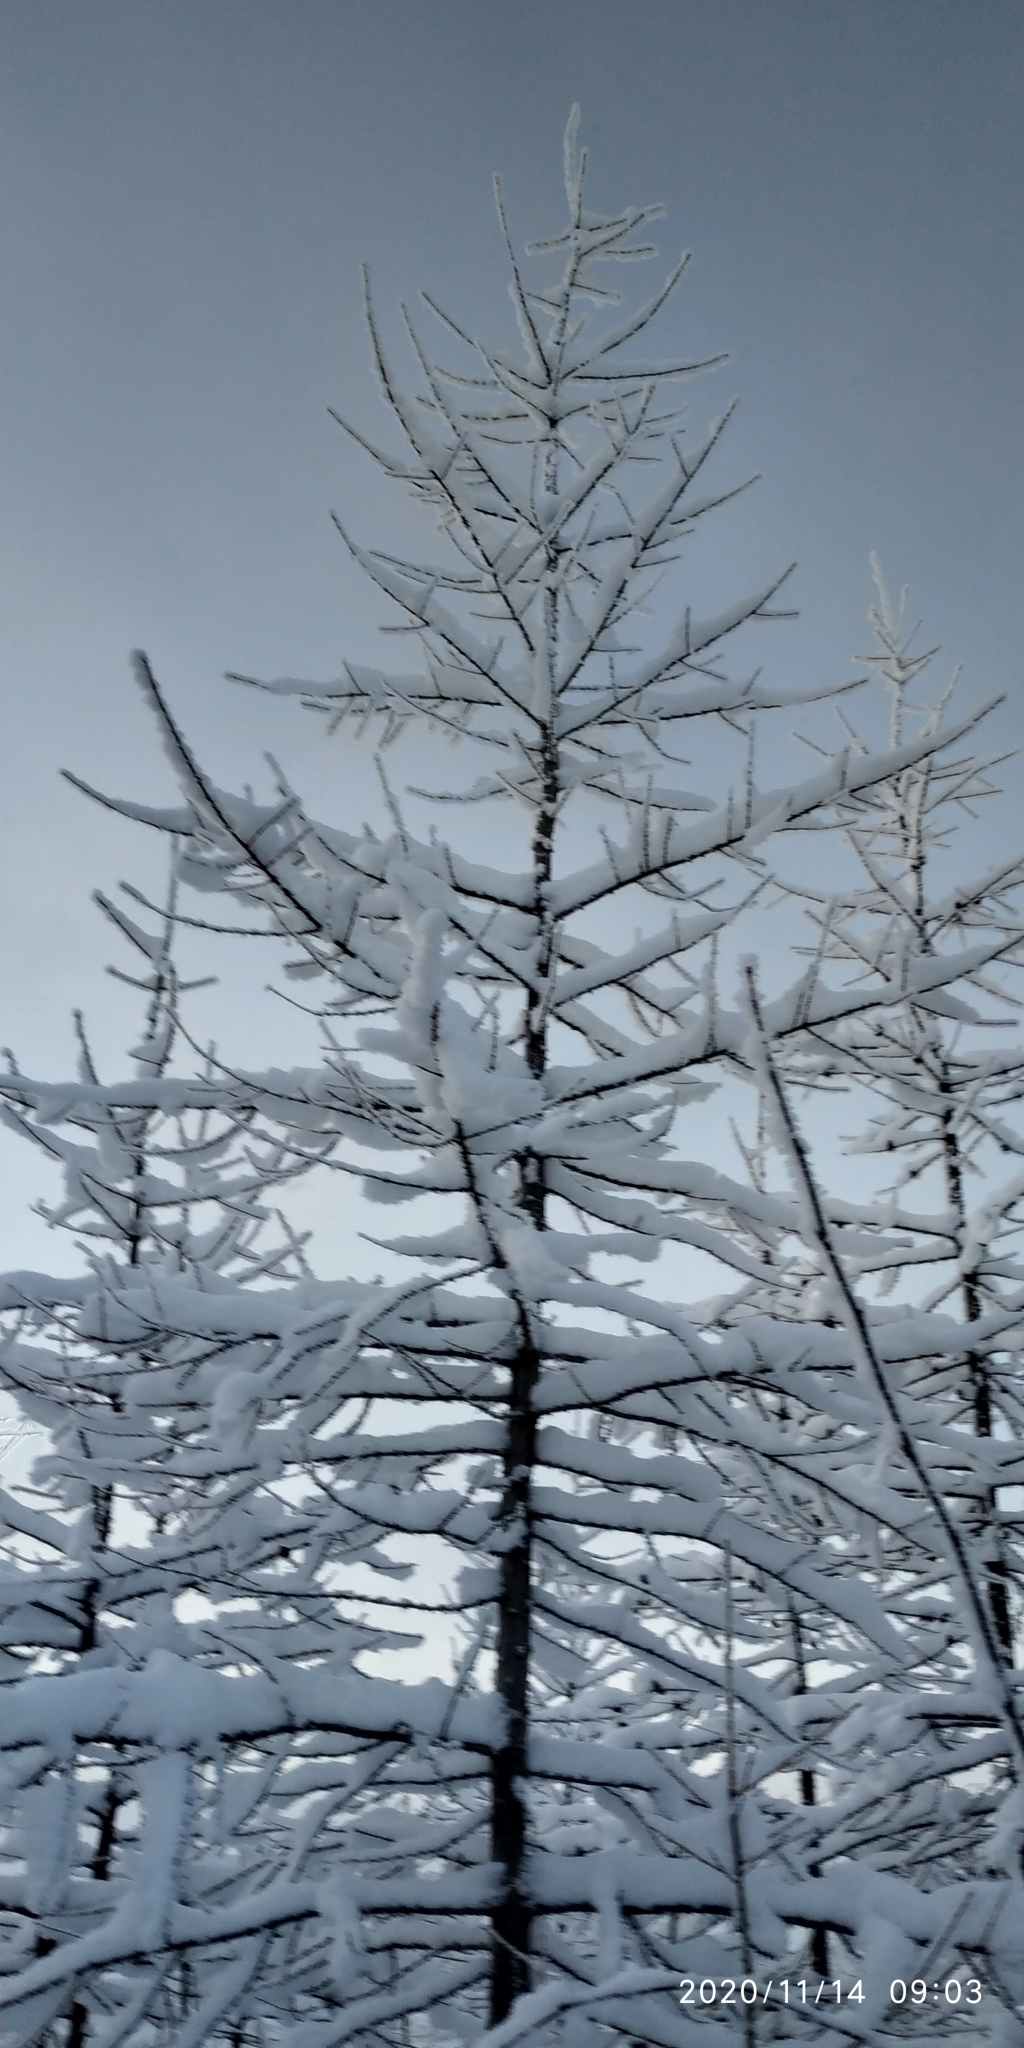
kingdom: Plantae
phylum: Tracheophyta
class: Pinopsida
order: Pinales
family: Pinaceae
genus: Larix
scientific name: Larix sibirica
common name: Siberian larch
